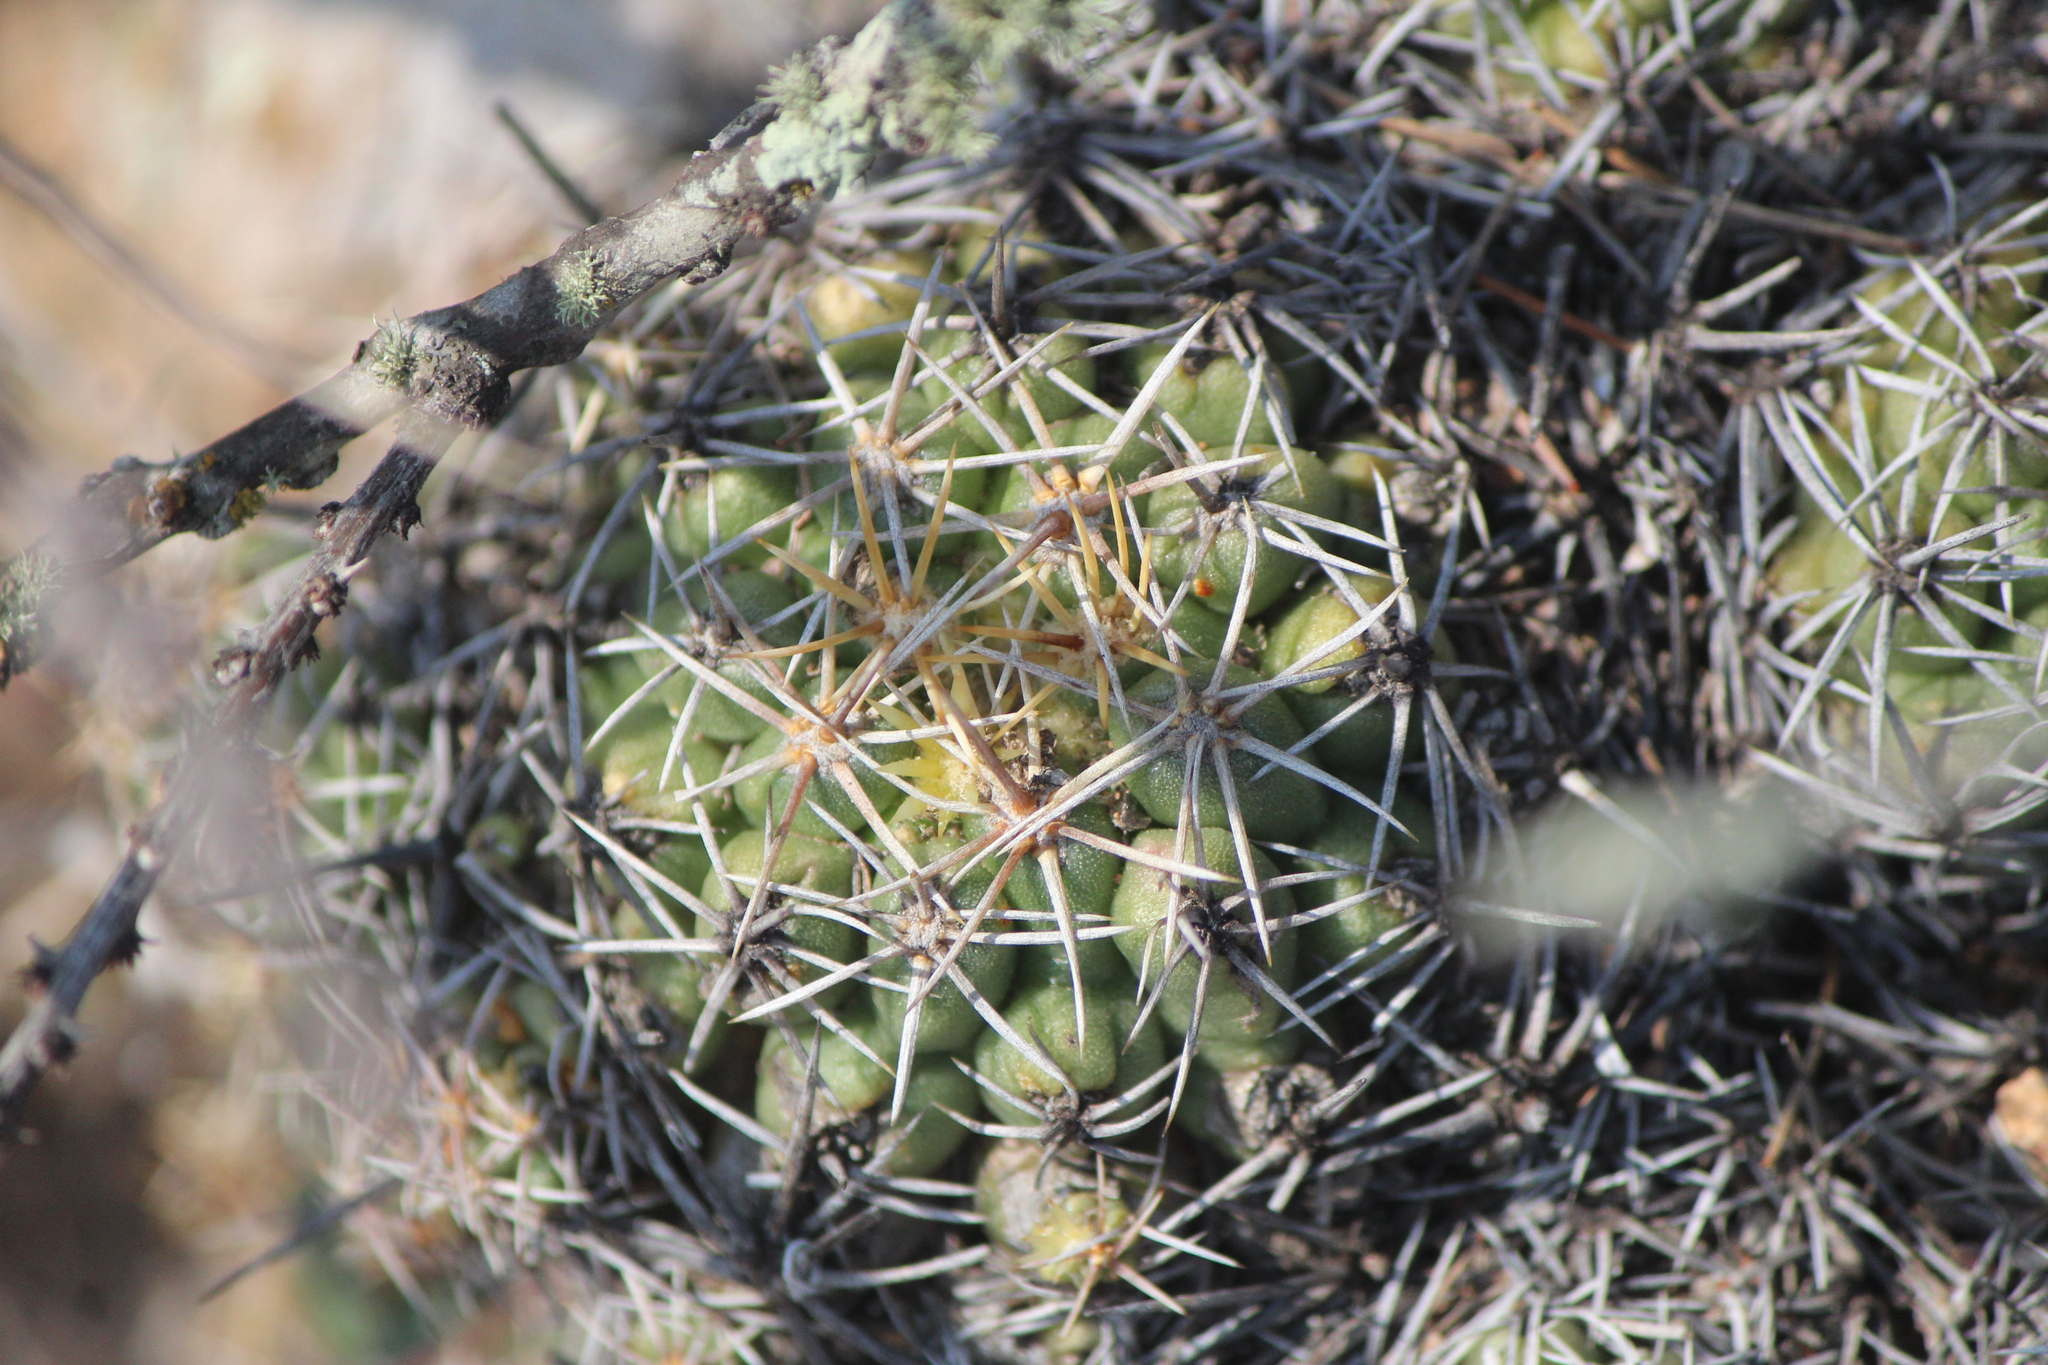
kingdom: Plantae
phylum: Tracheophyta
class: Magnoliopsida
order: Caryophyllales
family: Cactaceae
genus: Thelocactus
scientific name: Thelocactus leucacanthus
